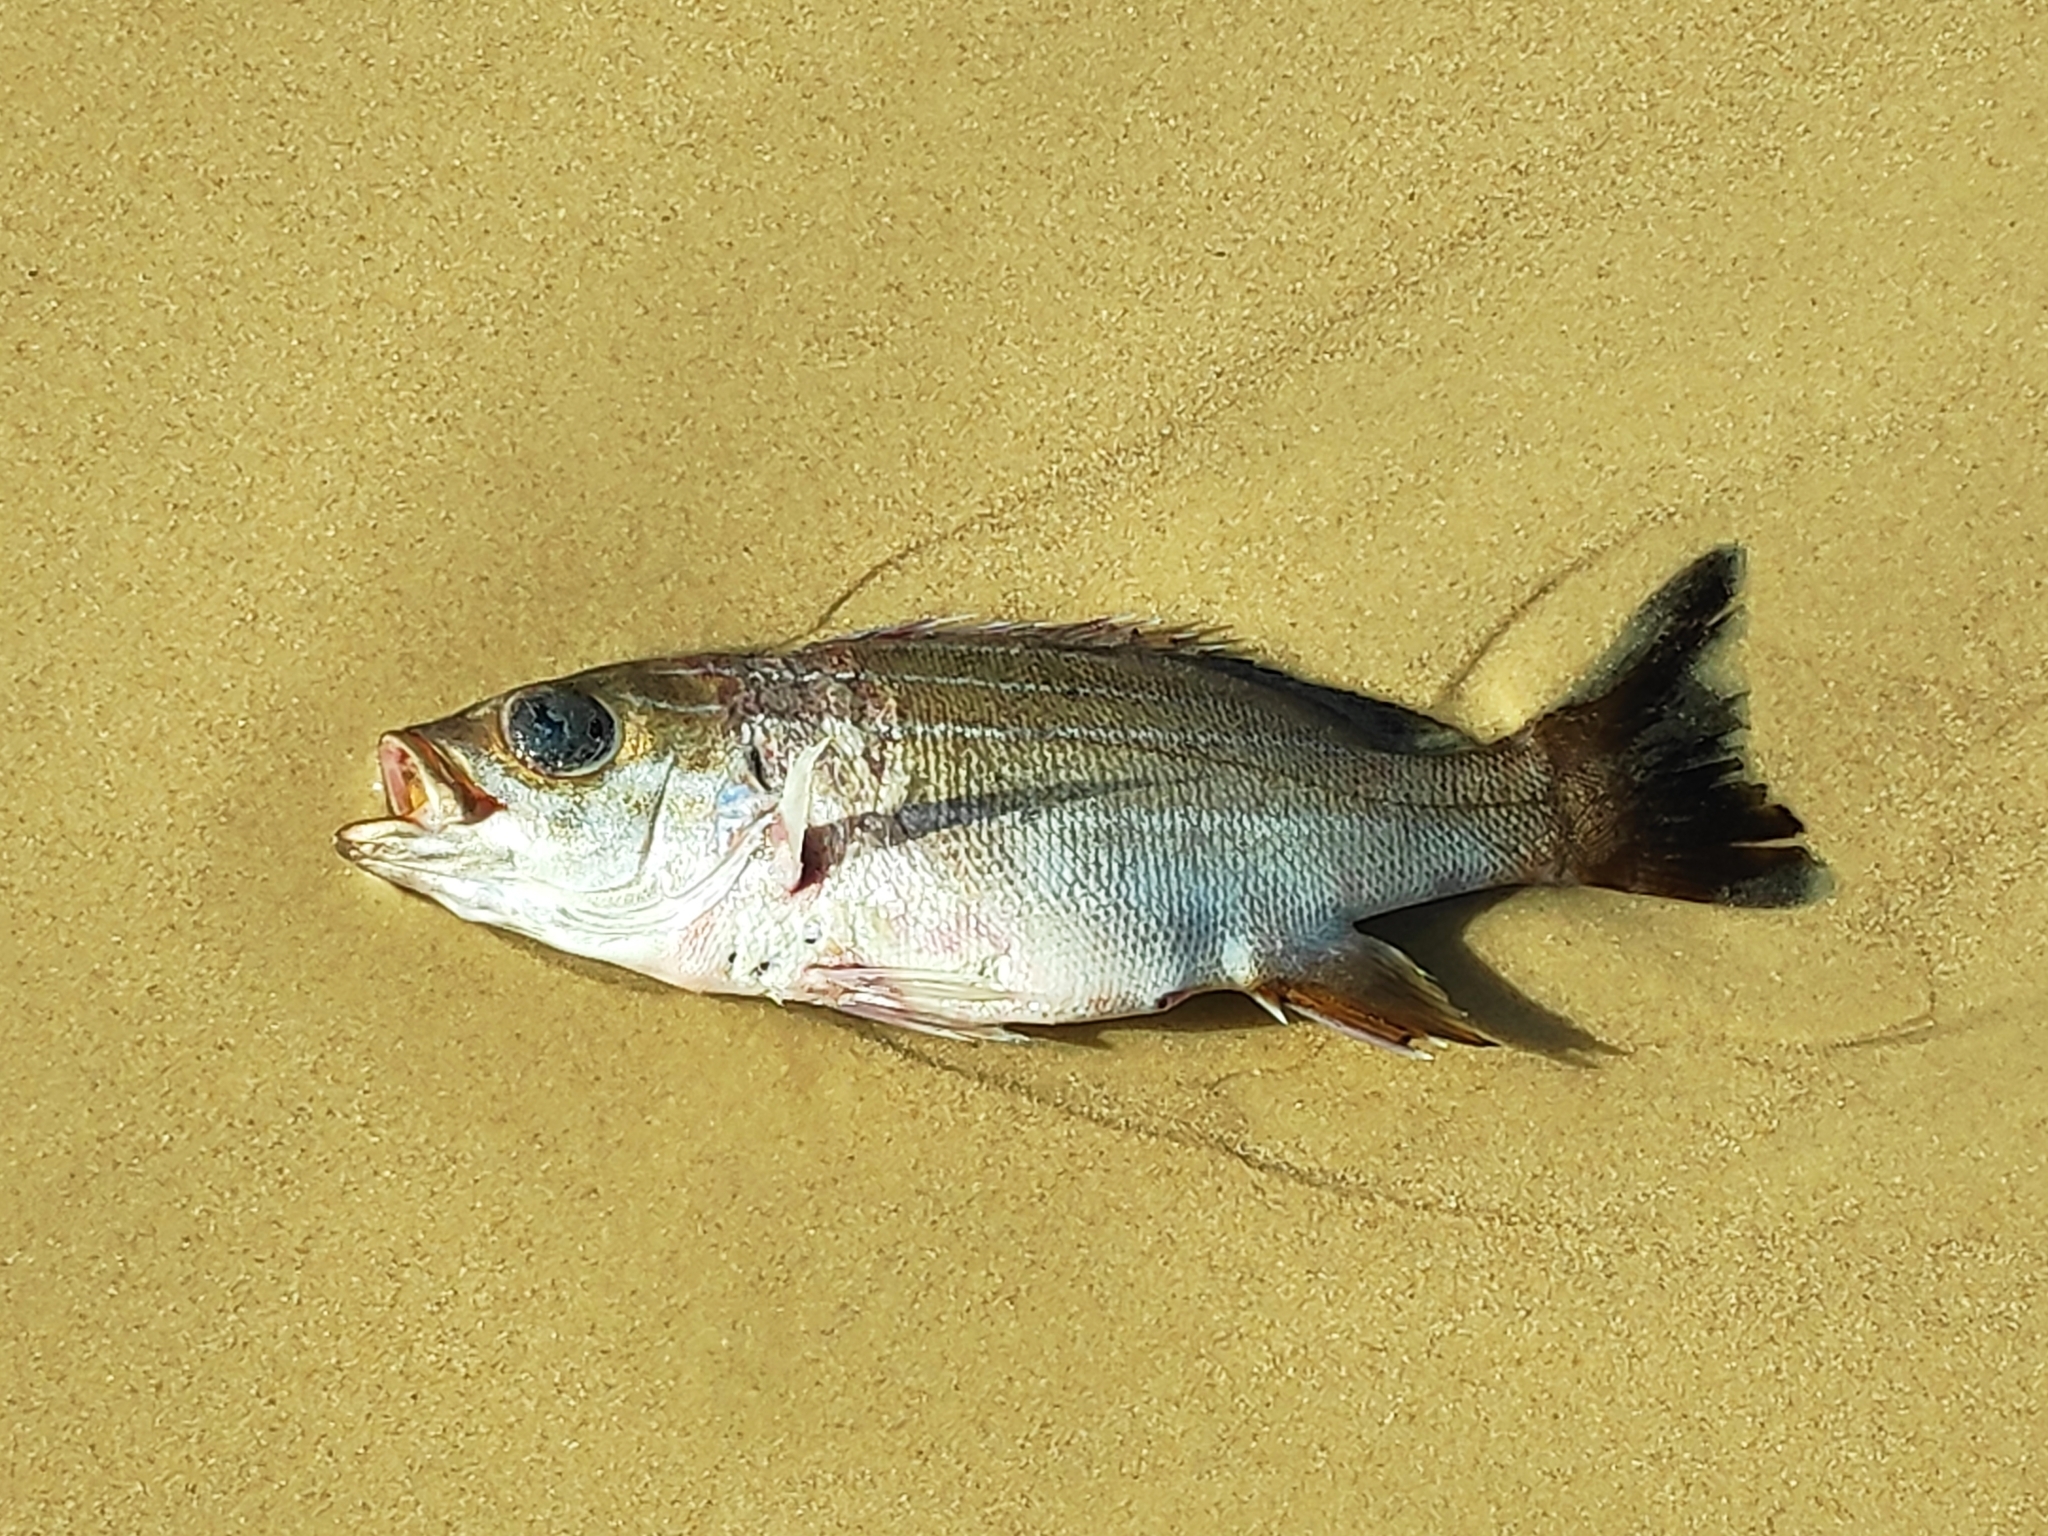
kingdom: Animalia
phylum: Chordata
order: Perciformes
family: Haemulidae
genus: Parapristipoma
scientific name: Parapristipoma octolineatum
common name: African striped grunt
